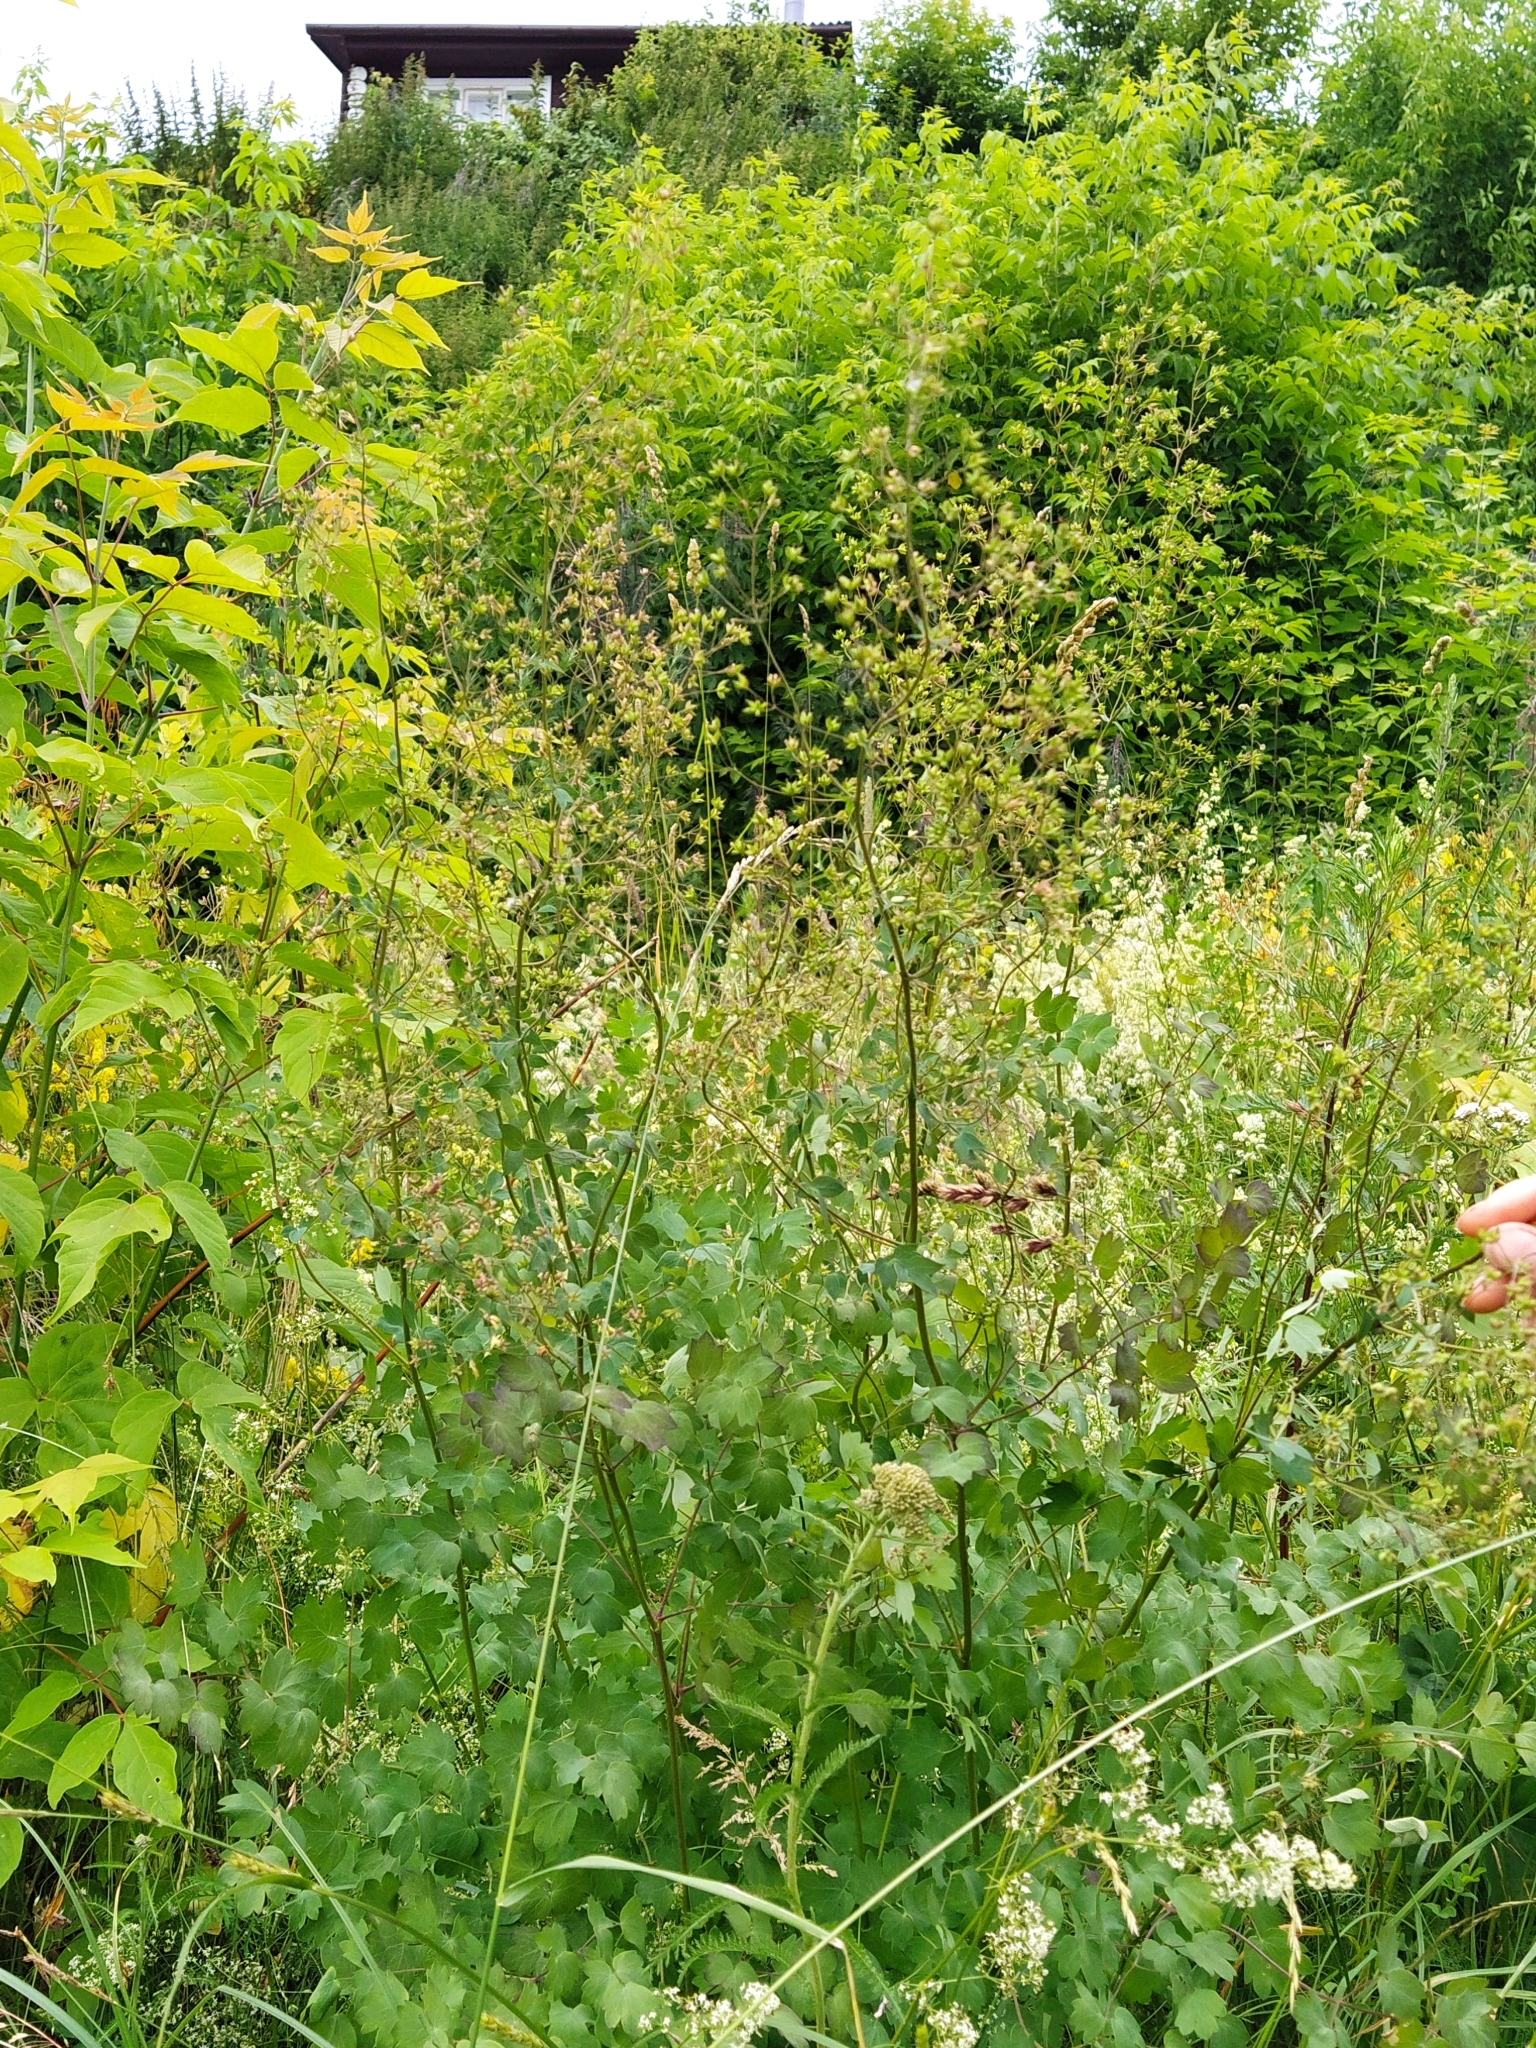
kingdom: Plantae
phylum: Tracheophyta
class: Magnoliopsida
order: Ranunculales
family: Ranunculaceae
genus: Thalictrum
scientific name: Thalictrum minus
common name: Lesser meadow-rue
